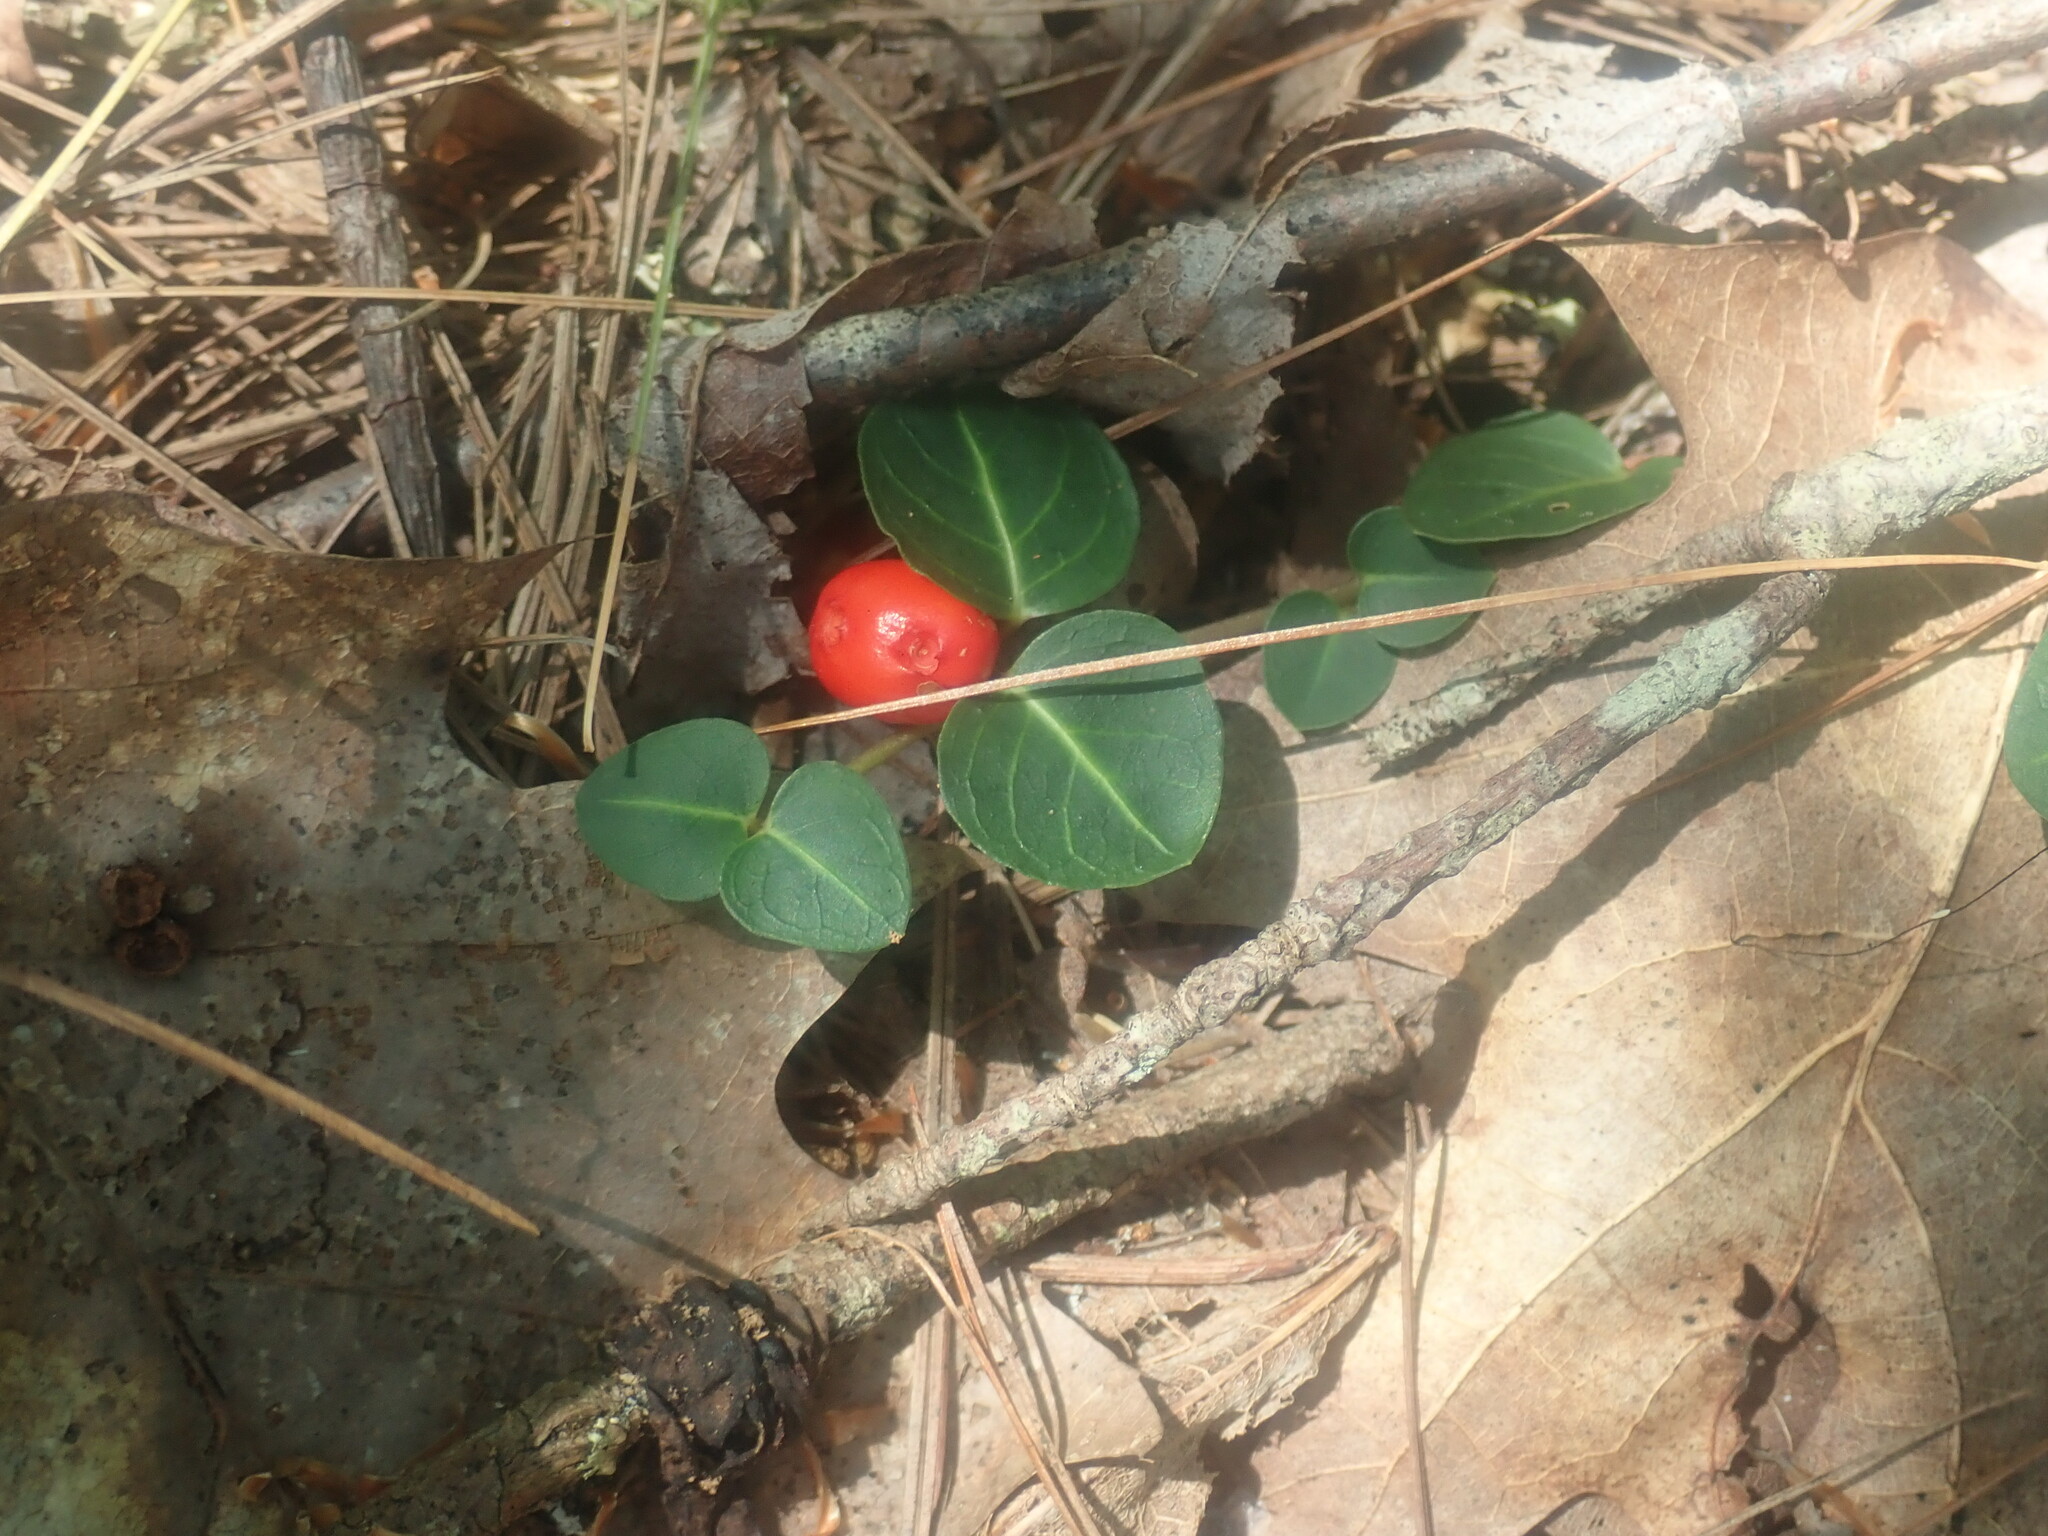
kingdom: Plantae
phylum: Tracheophyta
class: Magnoliopsida
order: Gentianales
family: Rubiaceae
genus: Mitchella
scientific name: Mitchella repens
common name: Partridge-berry
